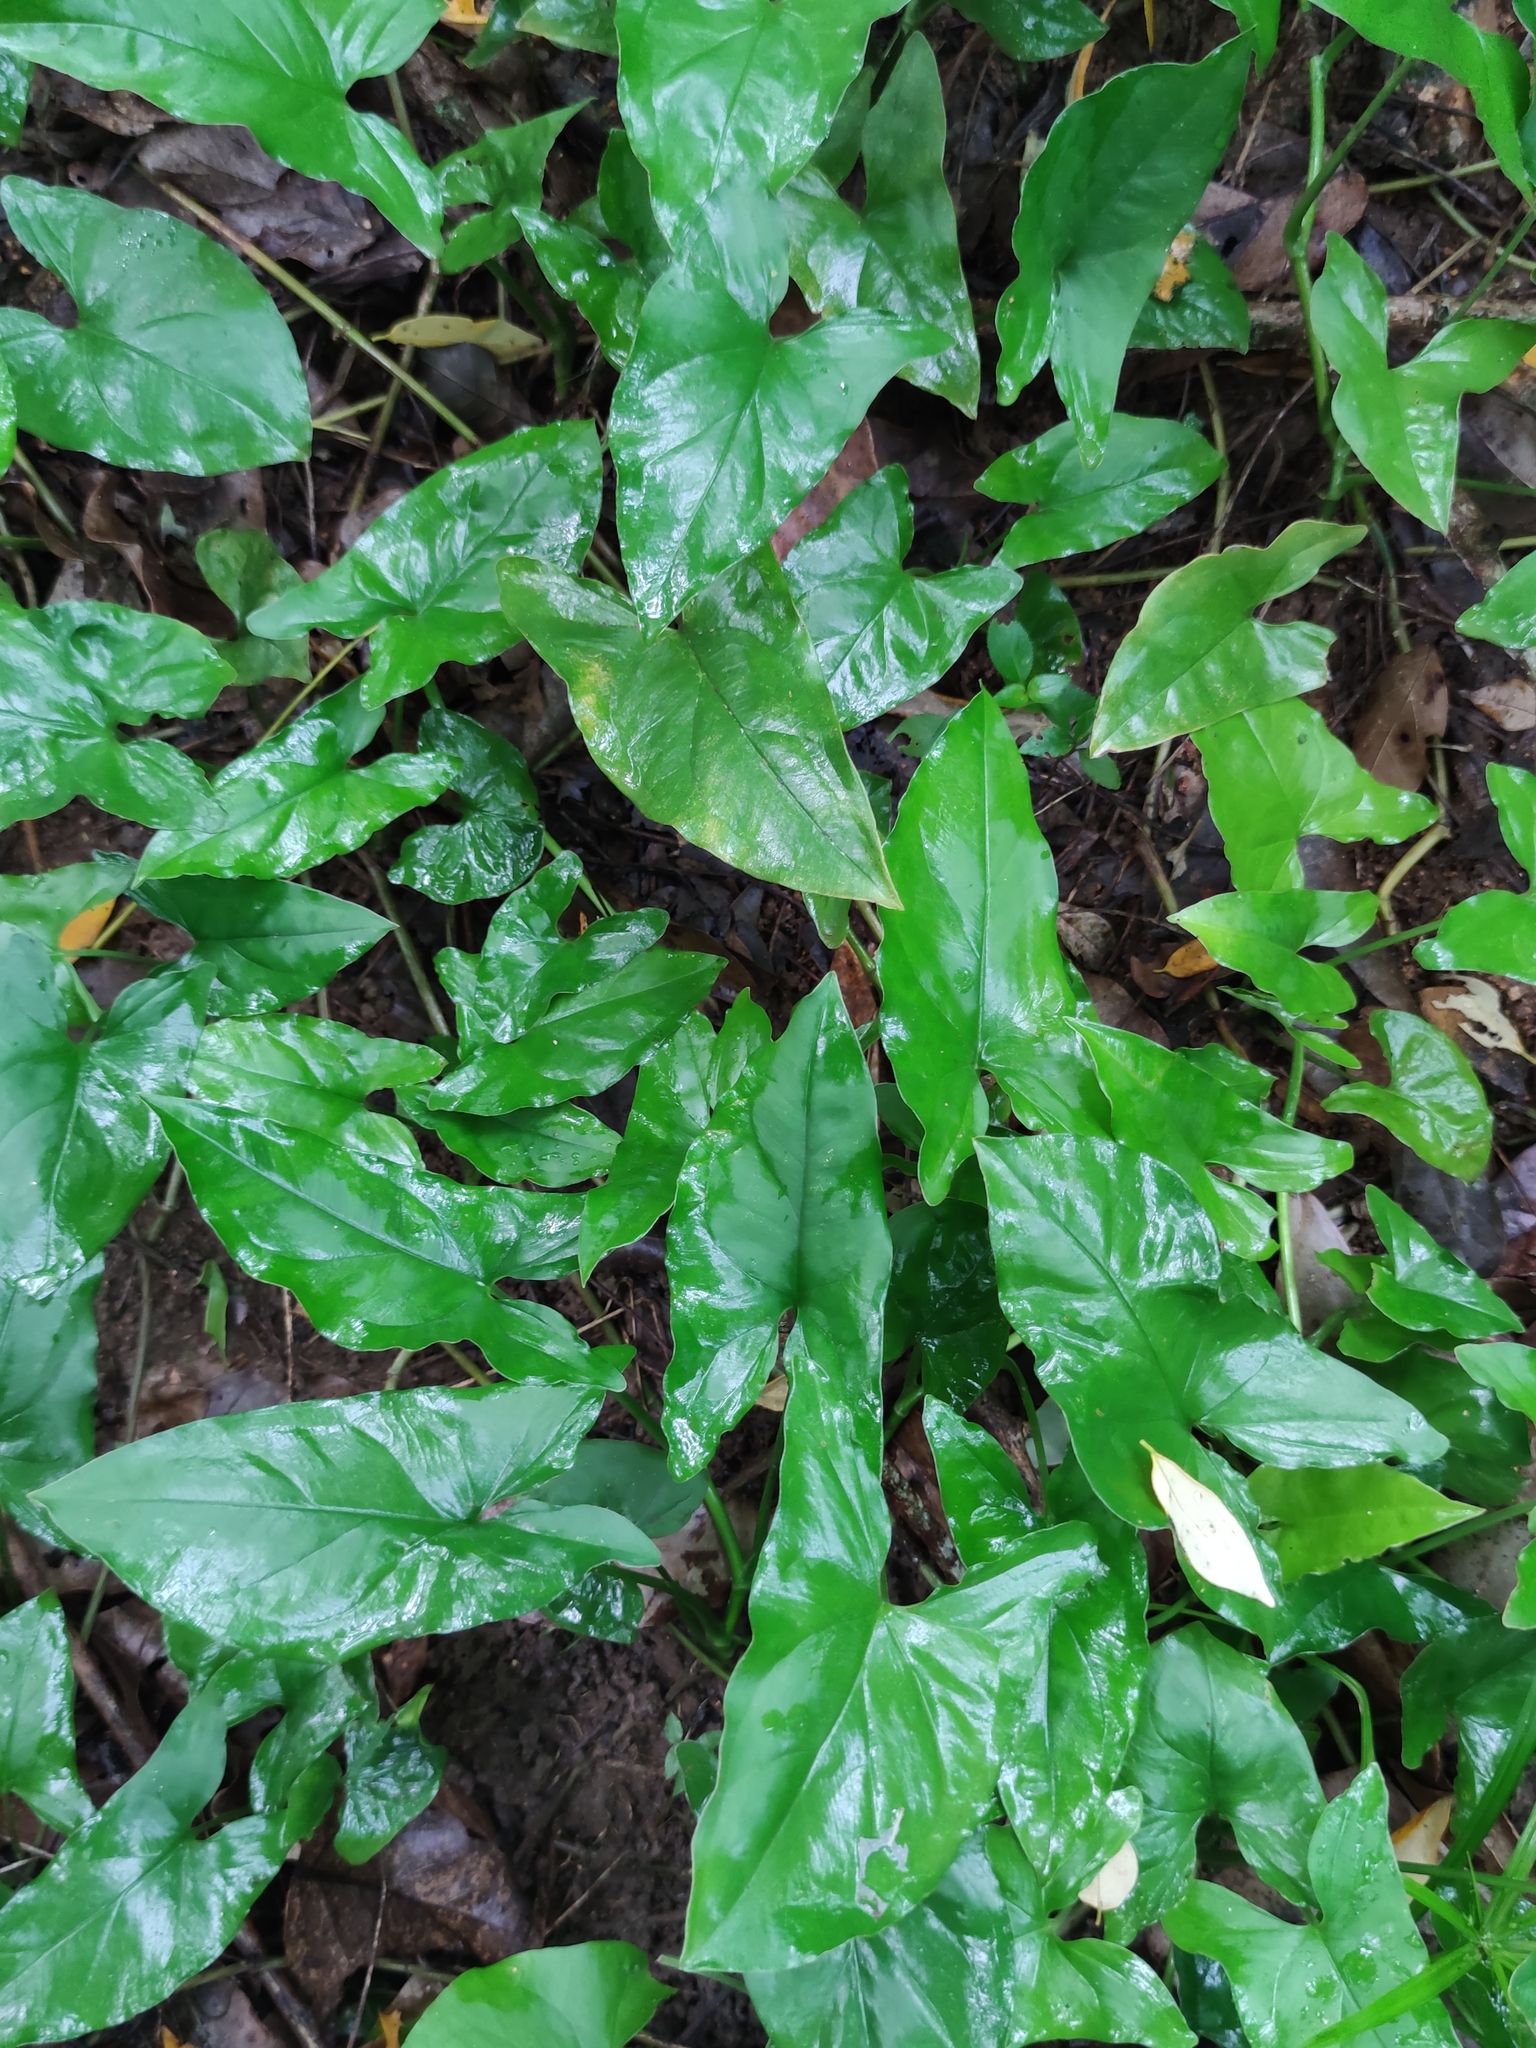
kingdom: Plantae
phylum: Tracheophyta
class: Liliopsida
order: Alismatales
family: Araceae
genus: Syngonium
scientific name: Syngonium podophyllum
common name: American evergreen
